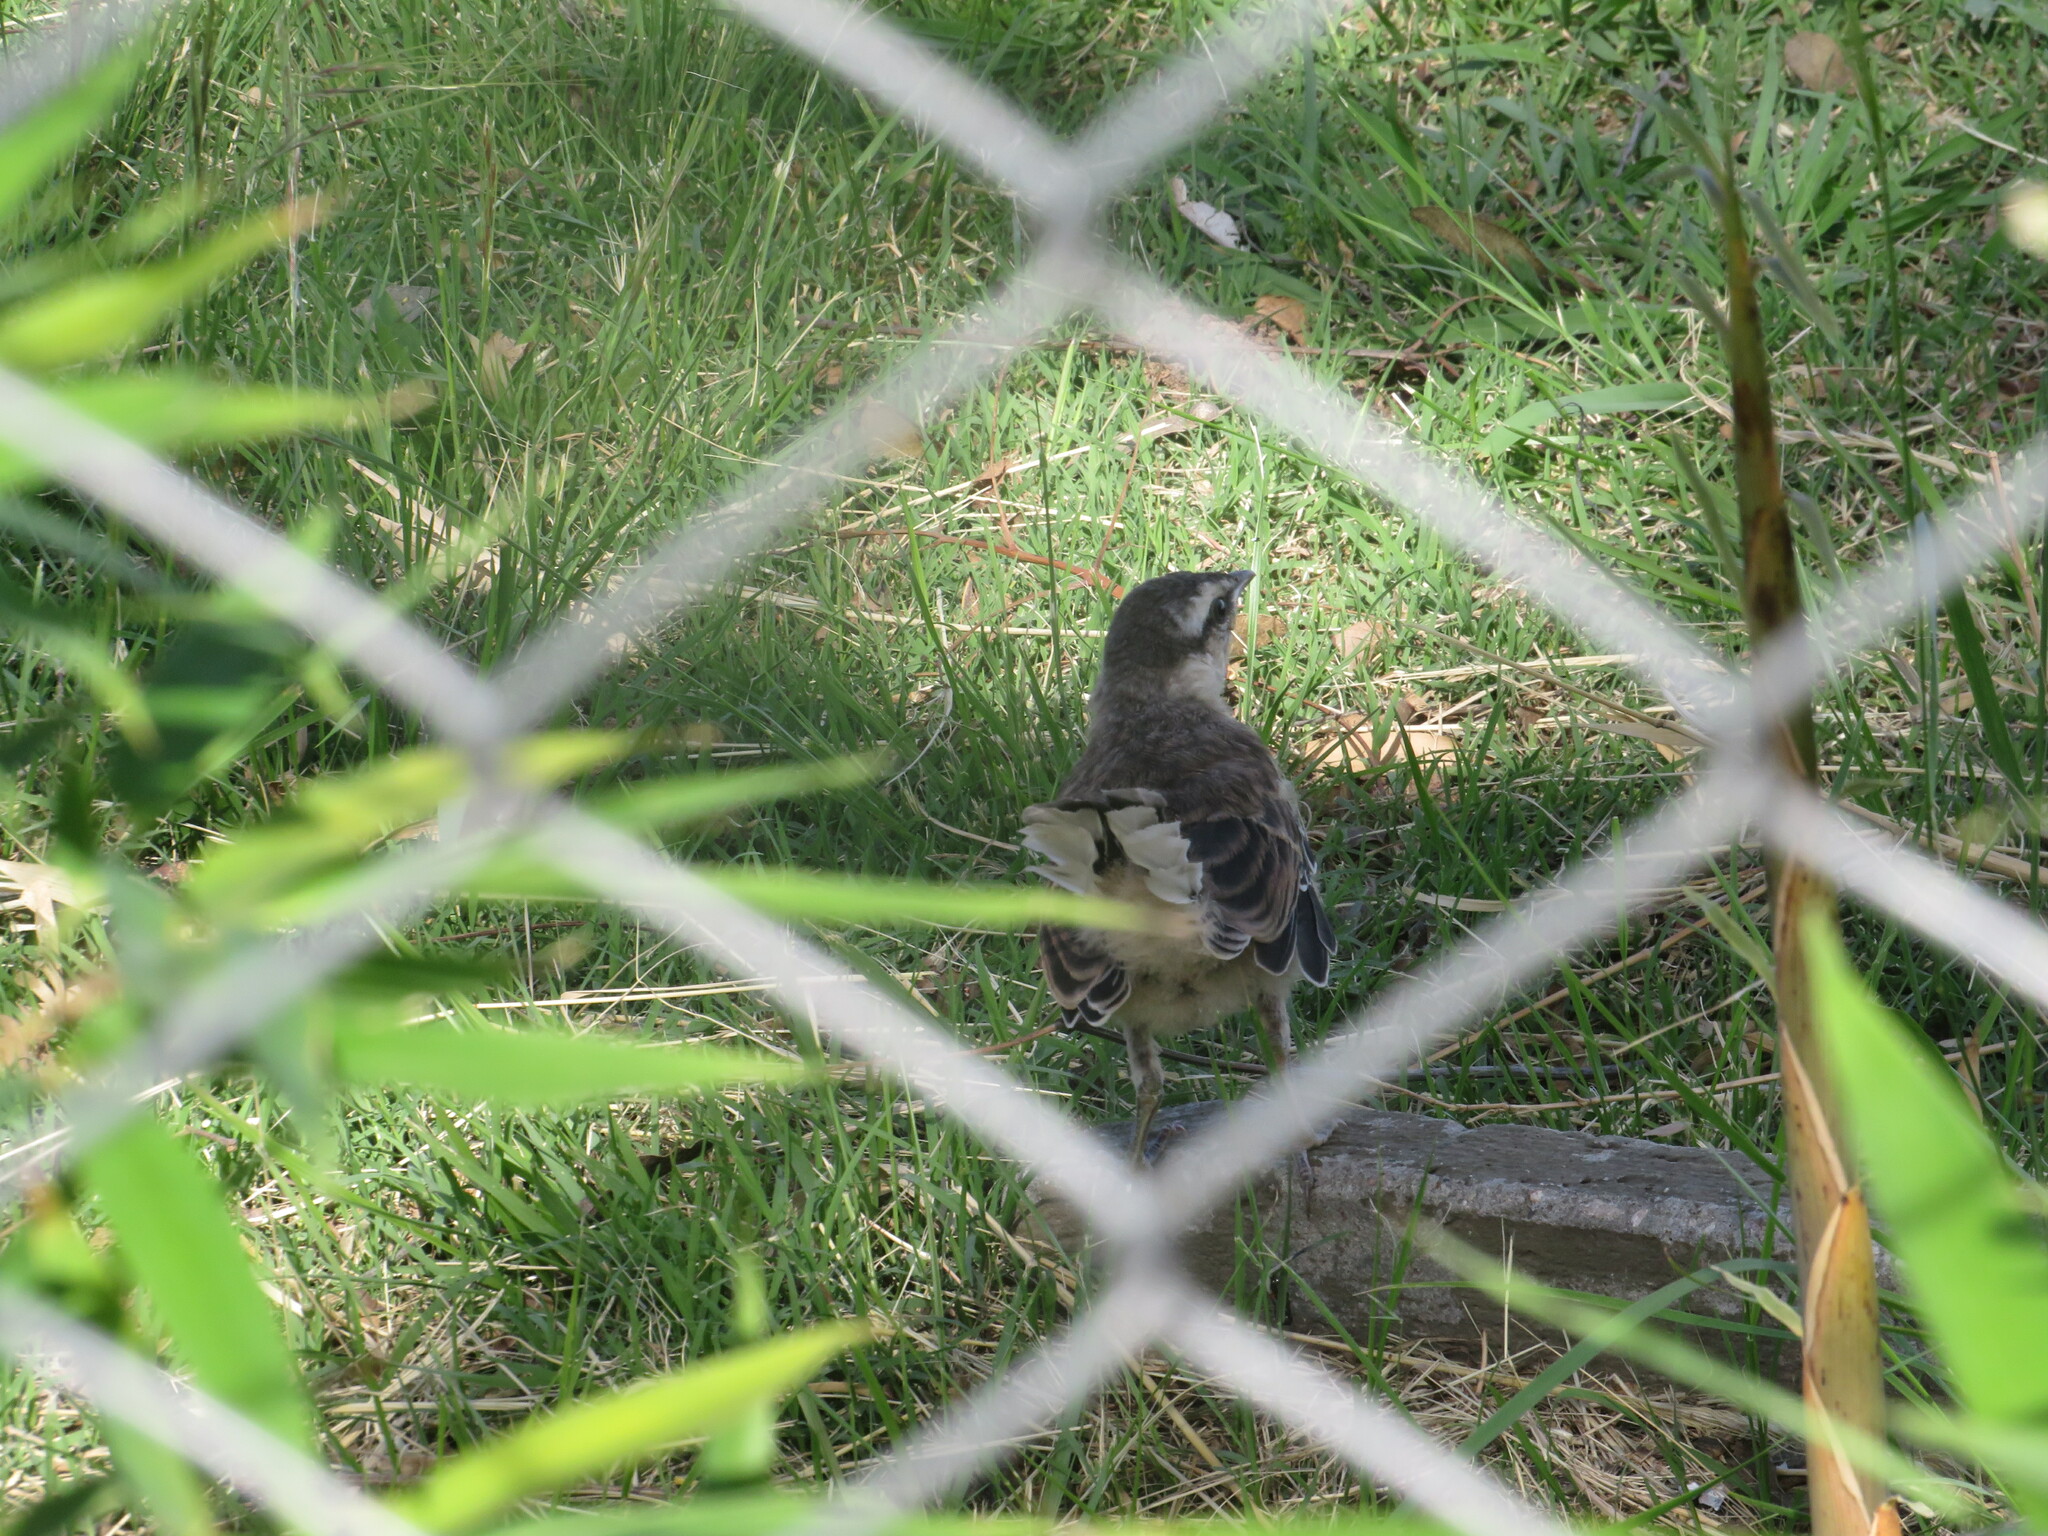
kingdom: Animalia
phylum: Chordata
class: Aves
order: Passeriformes
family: Mimidae
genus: Mimus
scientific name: Mimus saturninus
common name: Chalk-browed mockingbird
